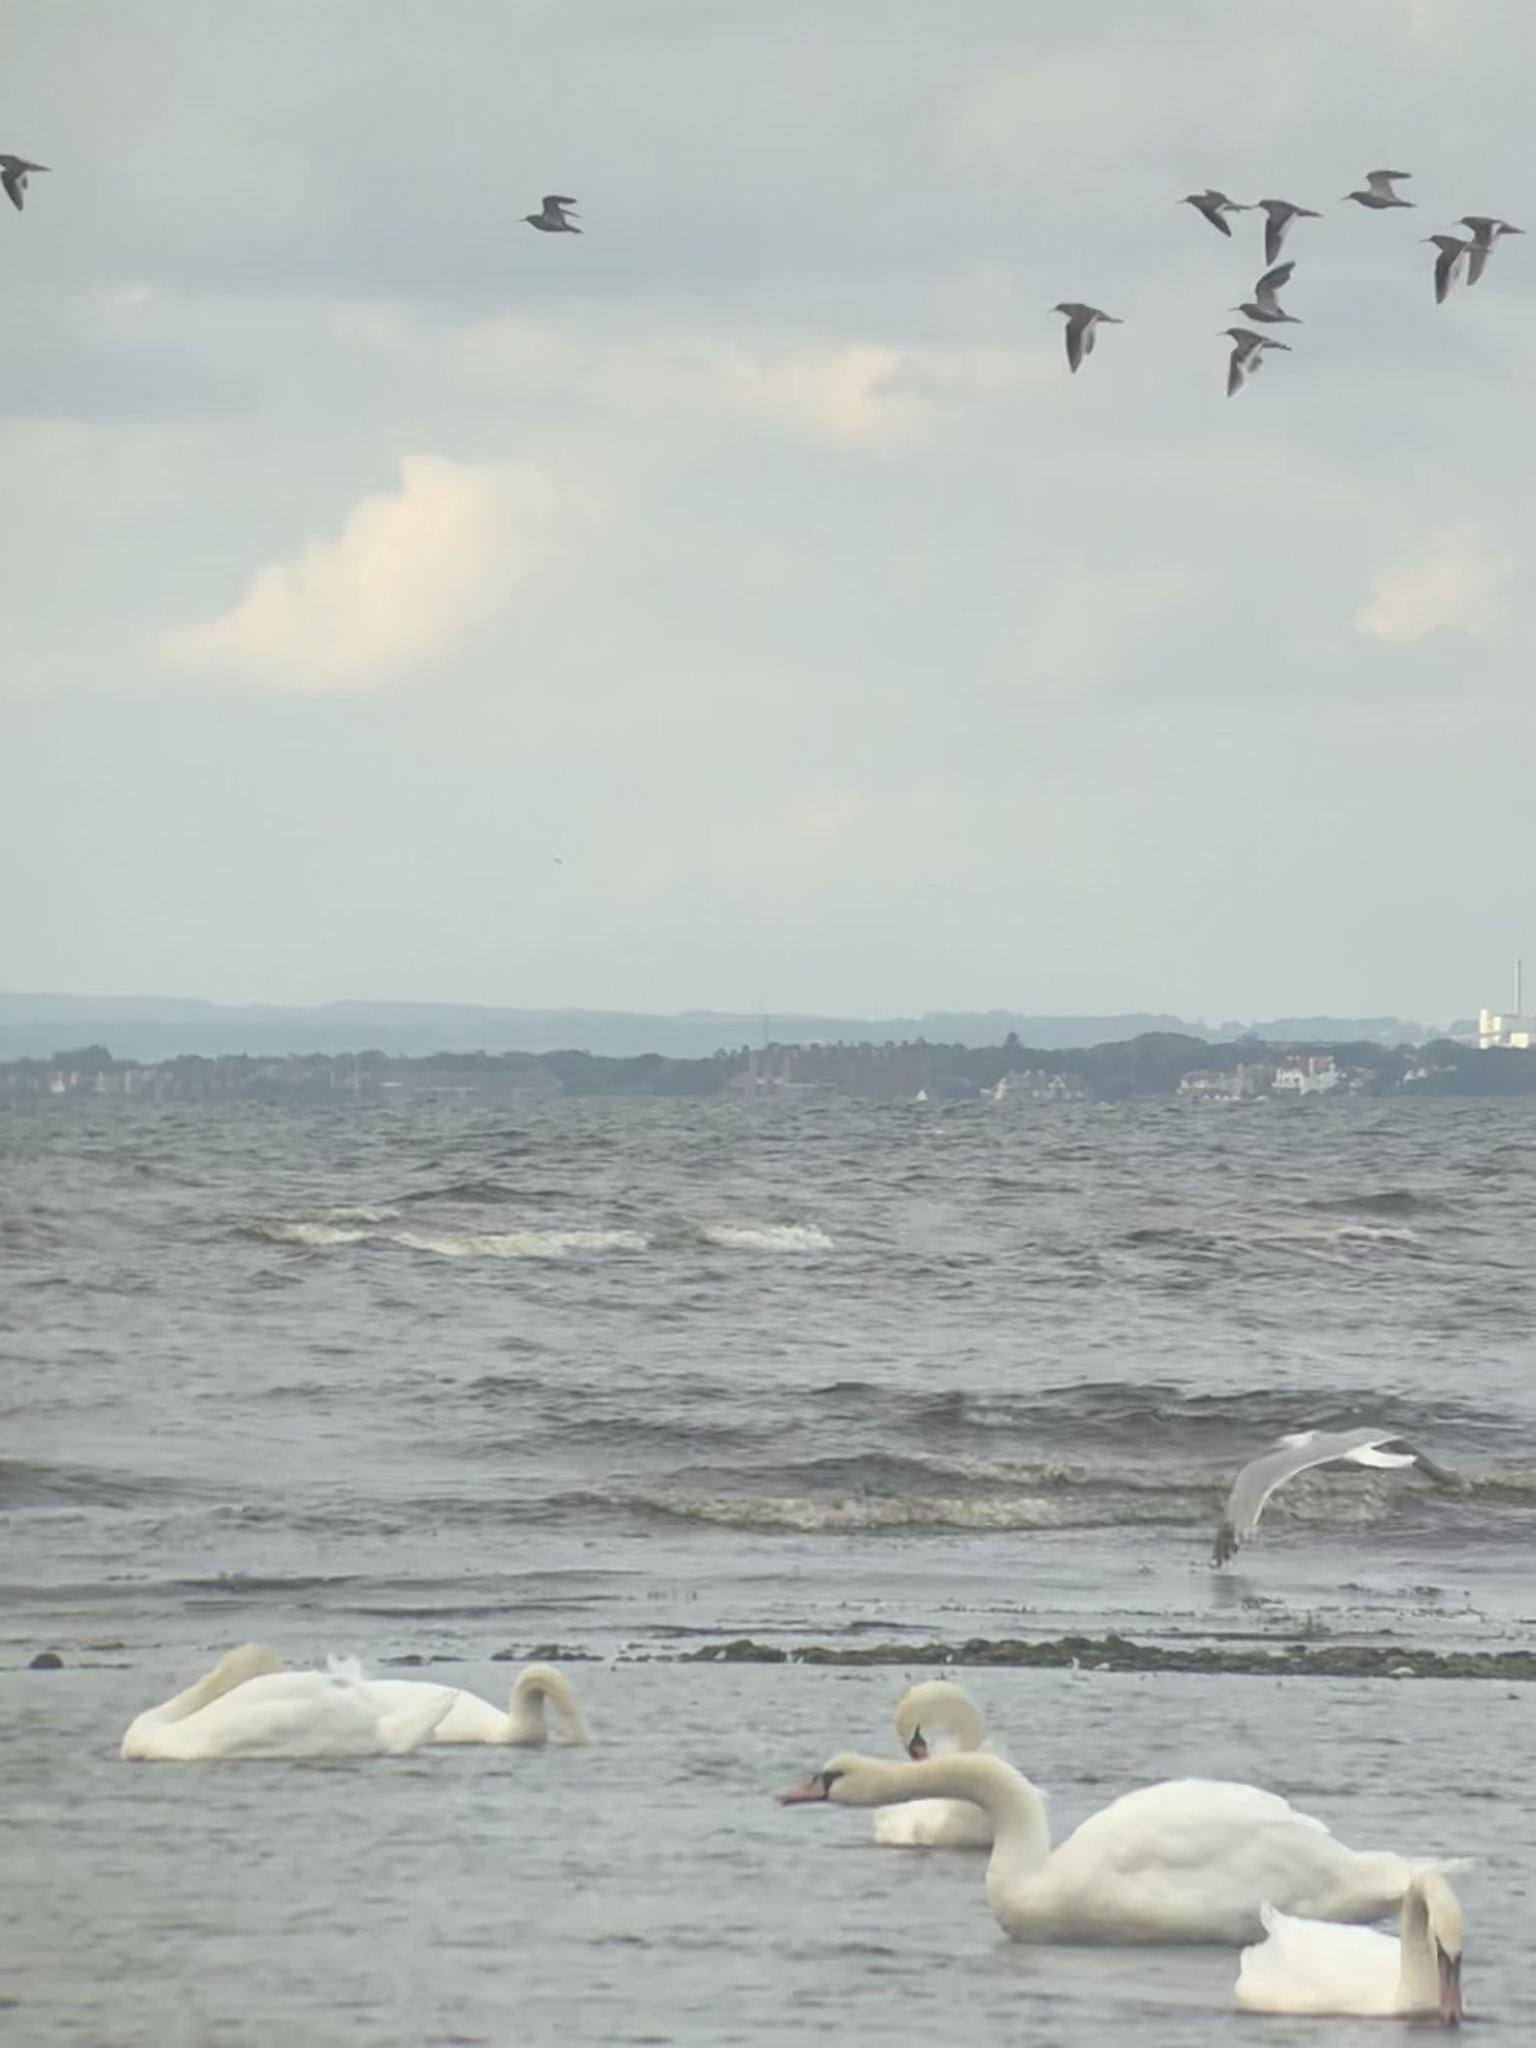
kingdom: Animalia
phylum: Chordata
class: Aves
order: Charadriiformes
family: Scolopacidae
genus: Tringa
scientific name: Tringa totanus
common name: Common redshank
